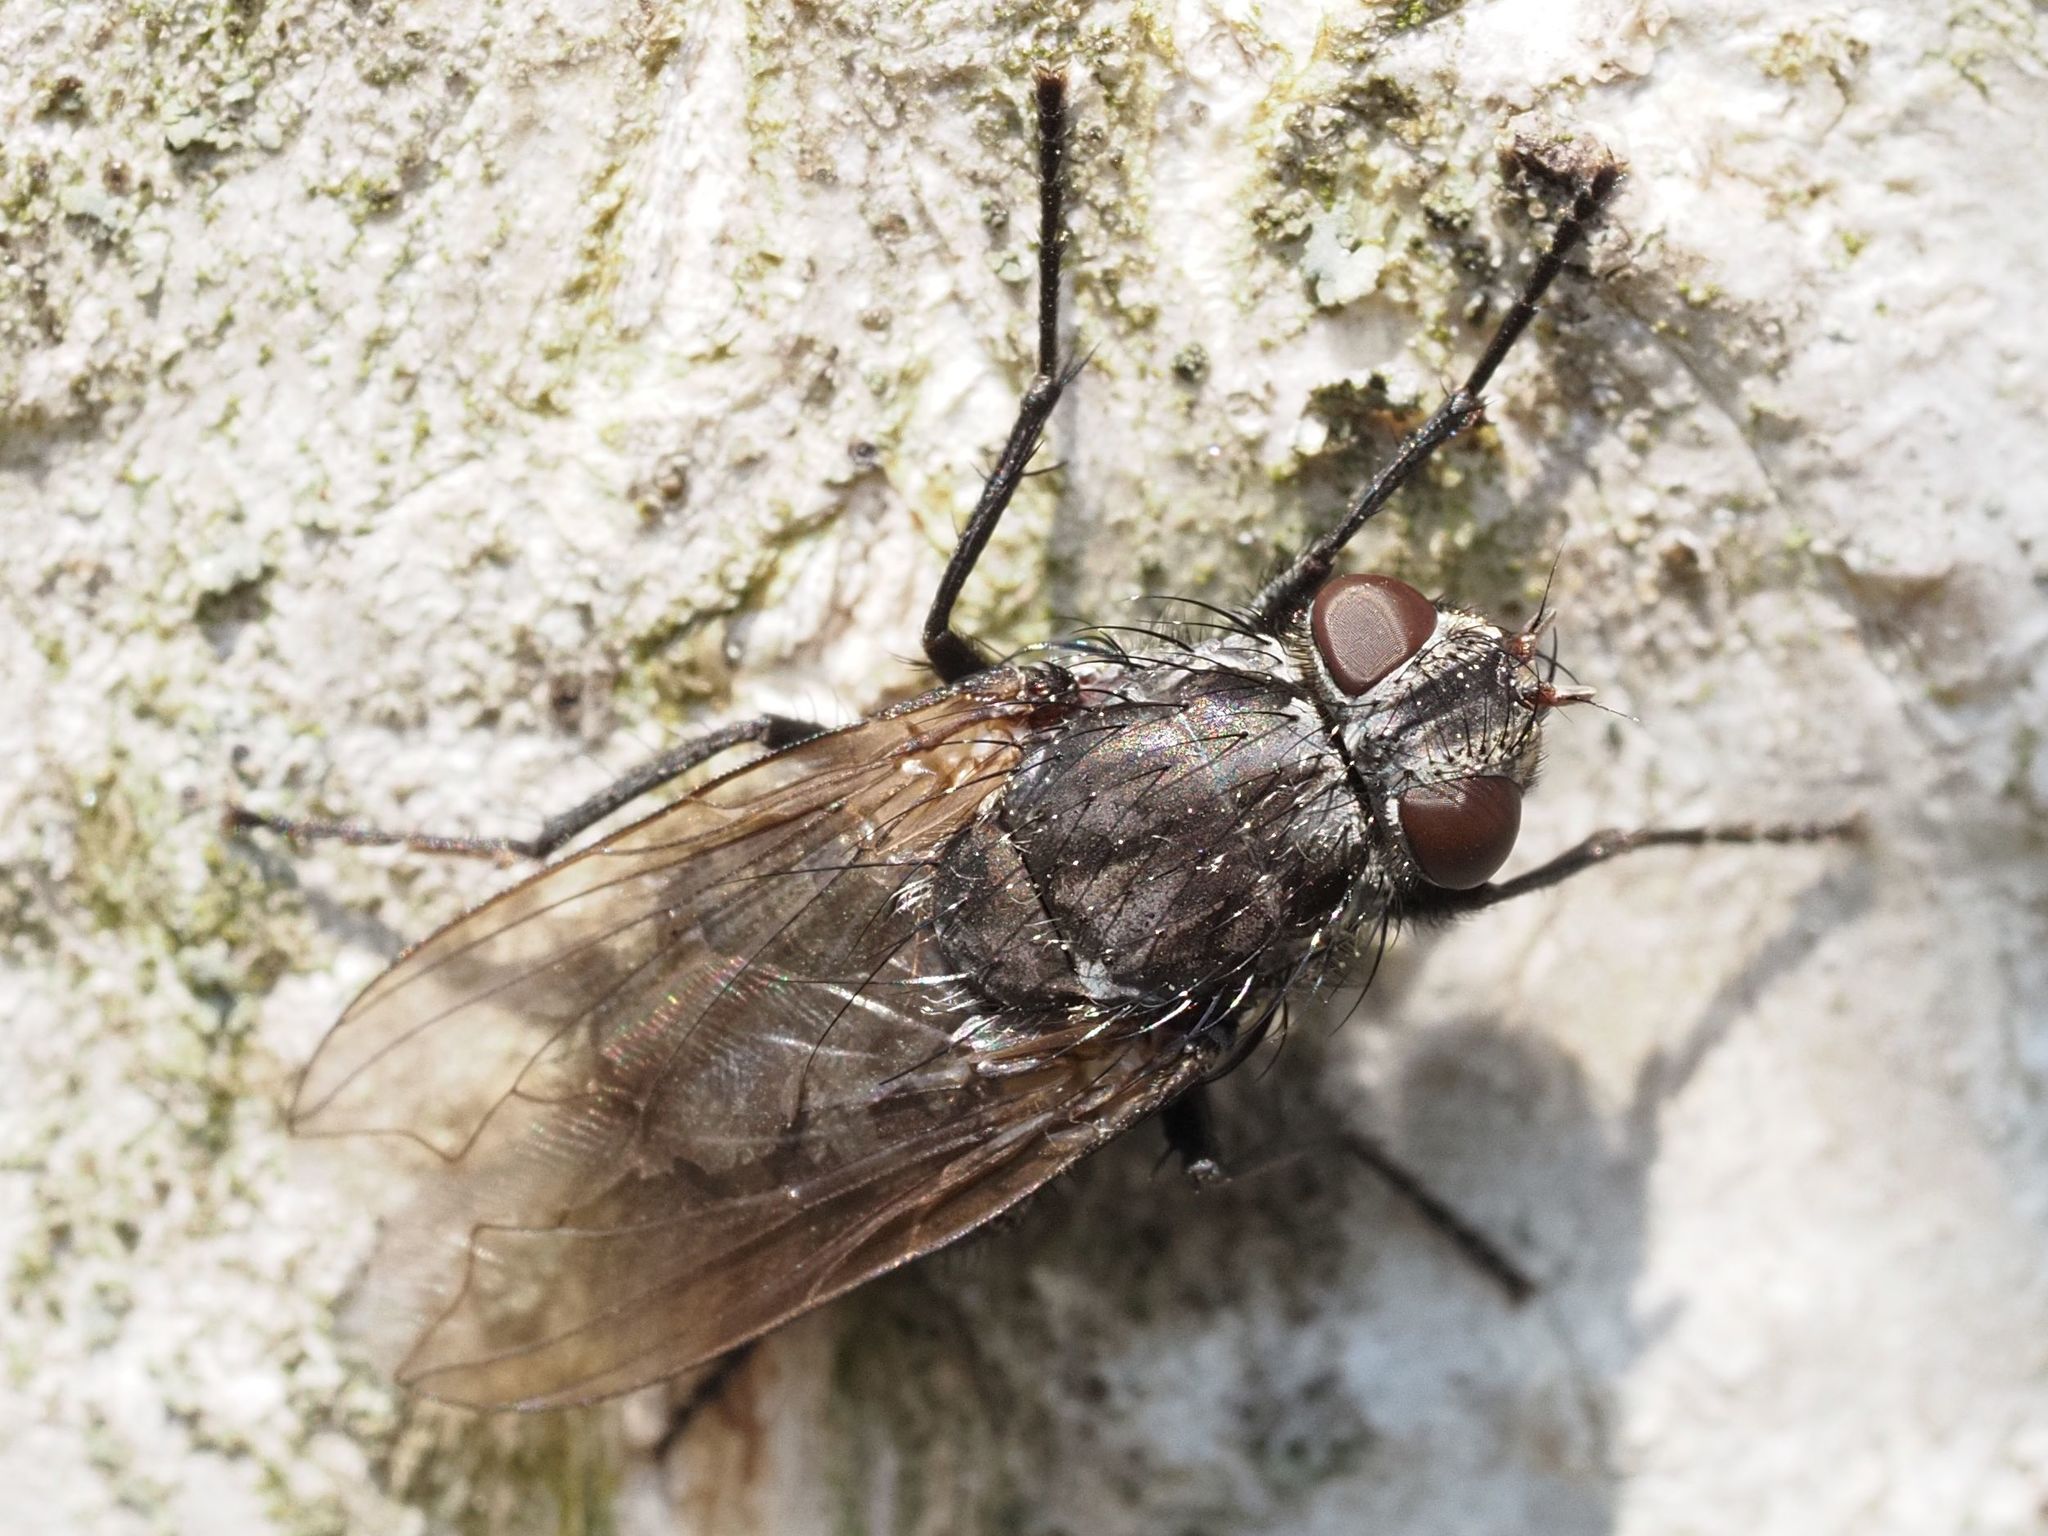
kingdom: Animalia
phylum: Arthropoda
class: Insecta
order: Diptera
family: Polleniidae
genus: Pollenia
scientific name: Pollenia vagabunda
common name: Vagabund cluster fly
